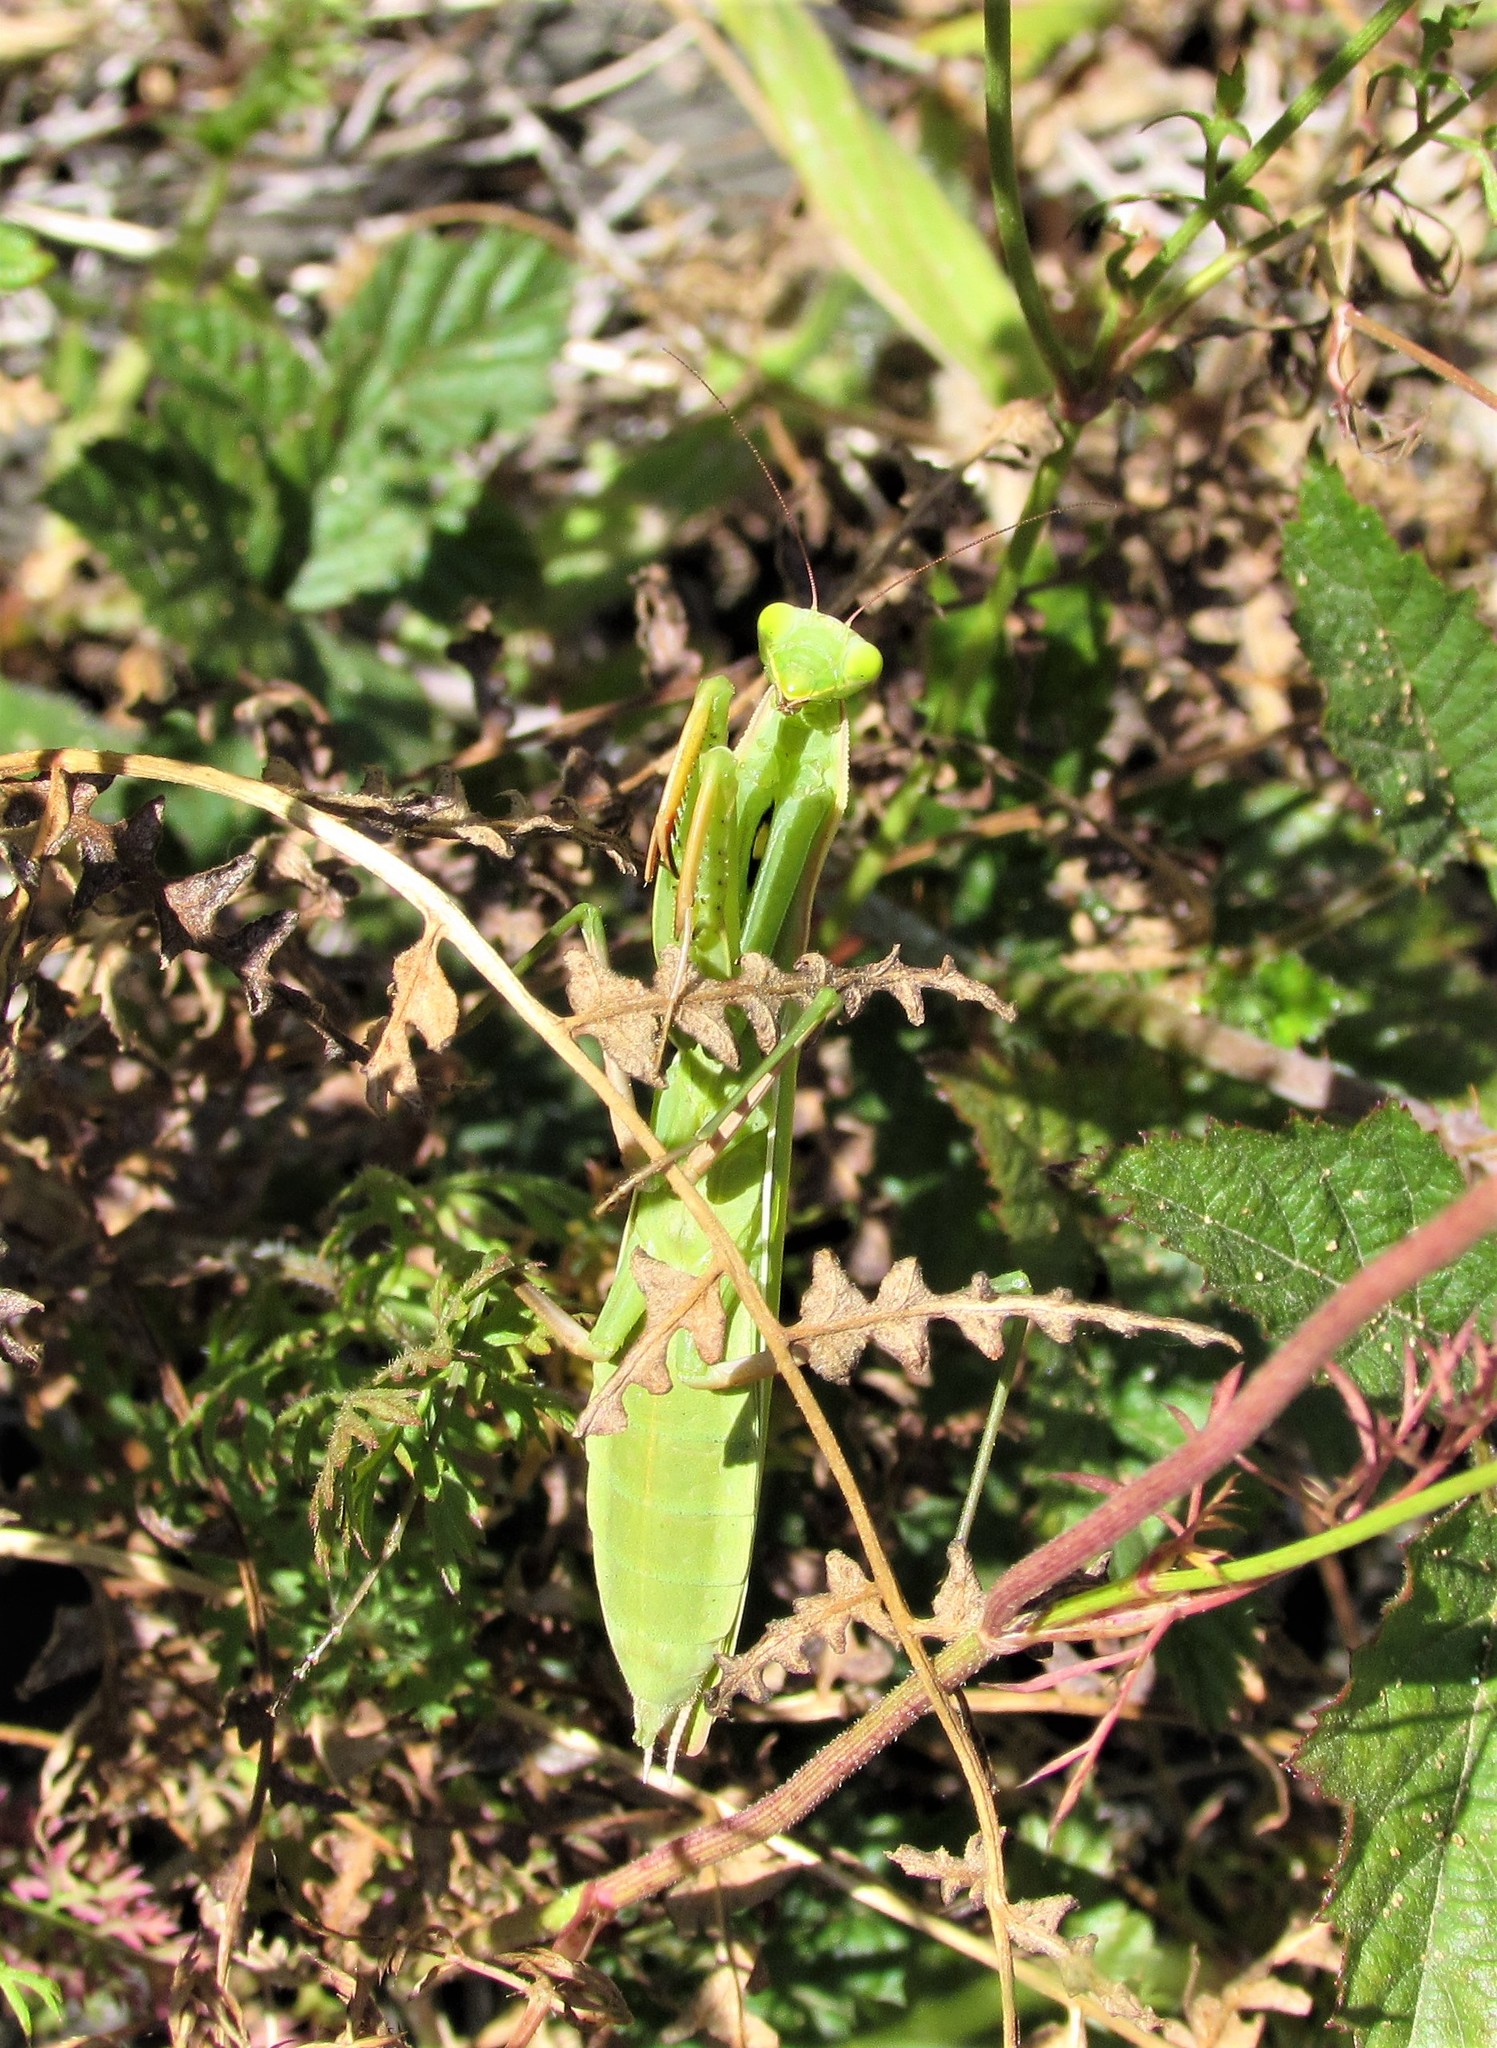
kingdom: Animalia
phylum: Arthropoda
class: Insecta
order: Mantodea
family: Mantidae
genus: Mantis
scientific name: Mantis religiosa
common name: Praying mantis
